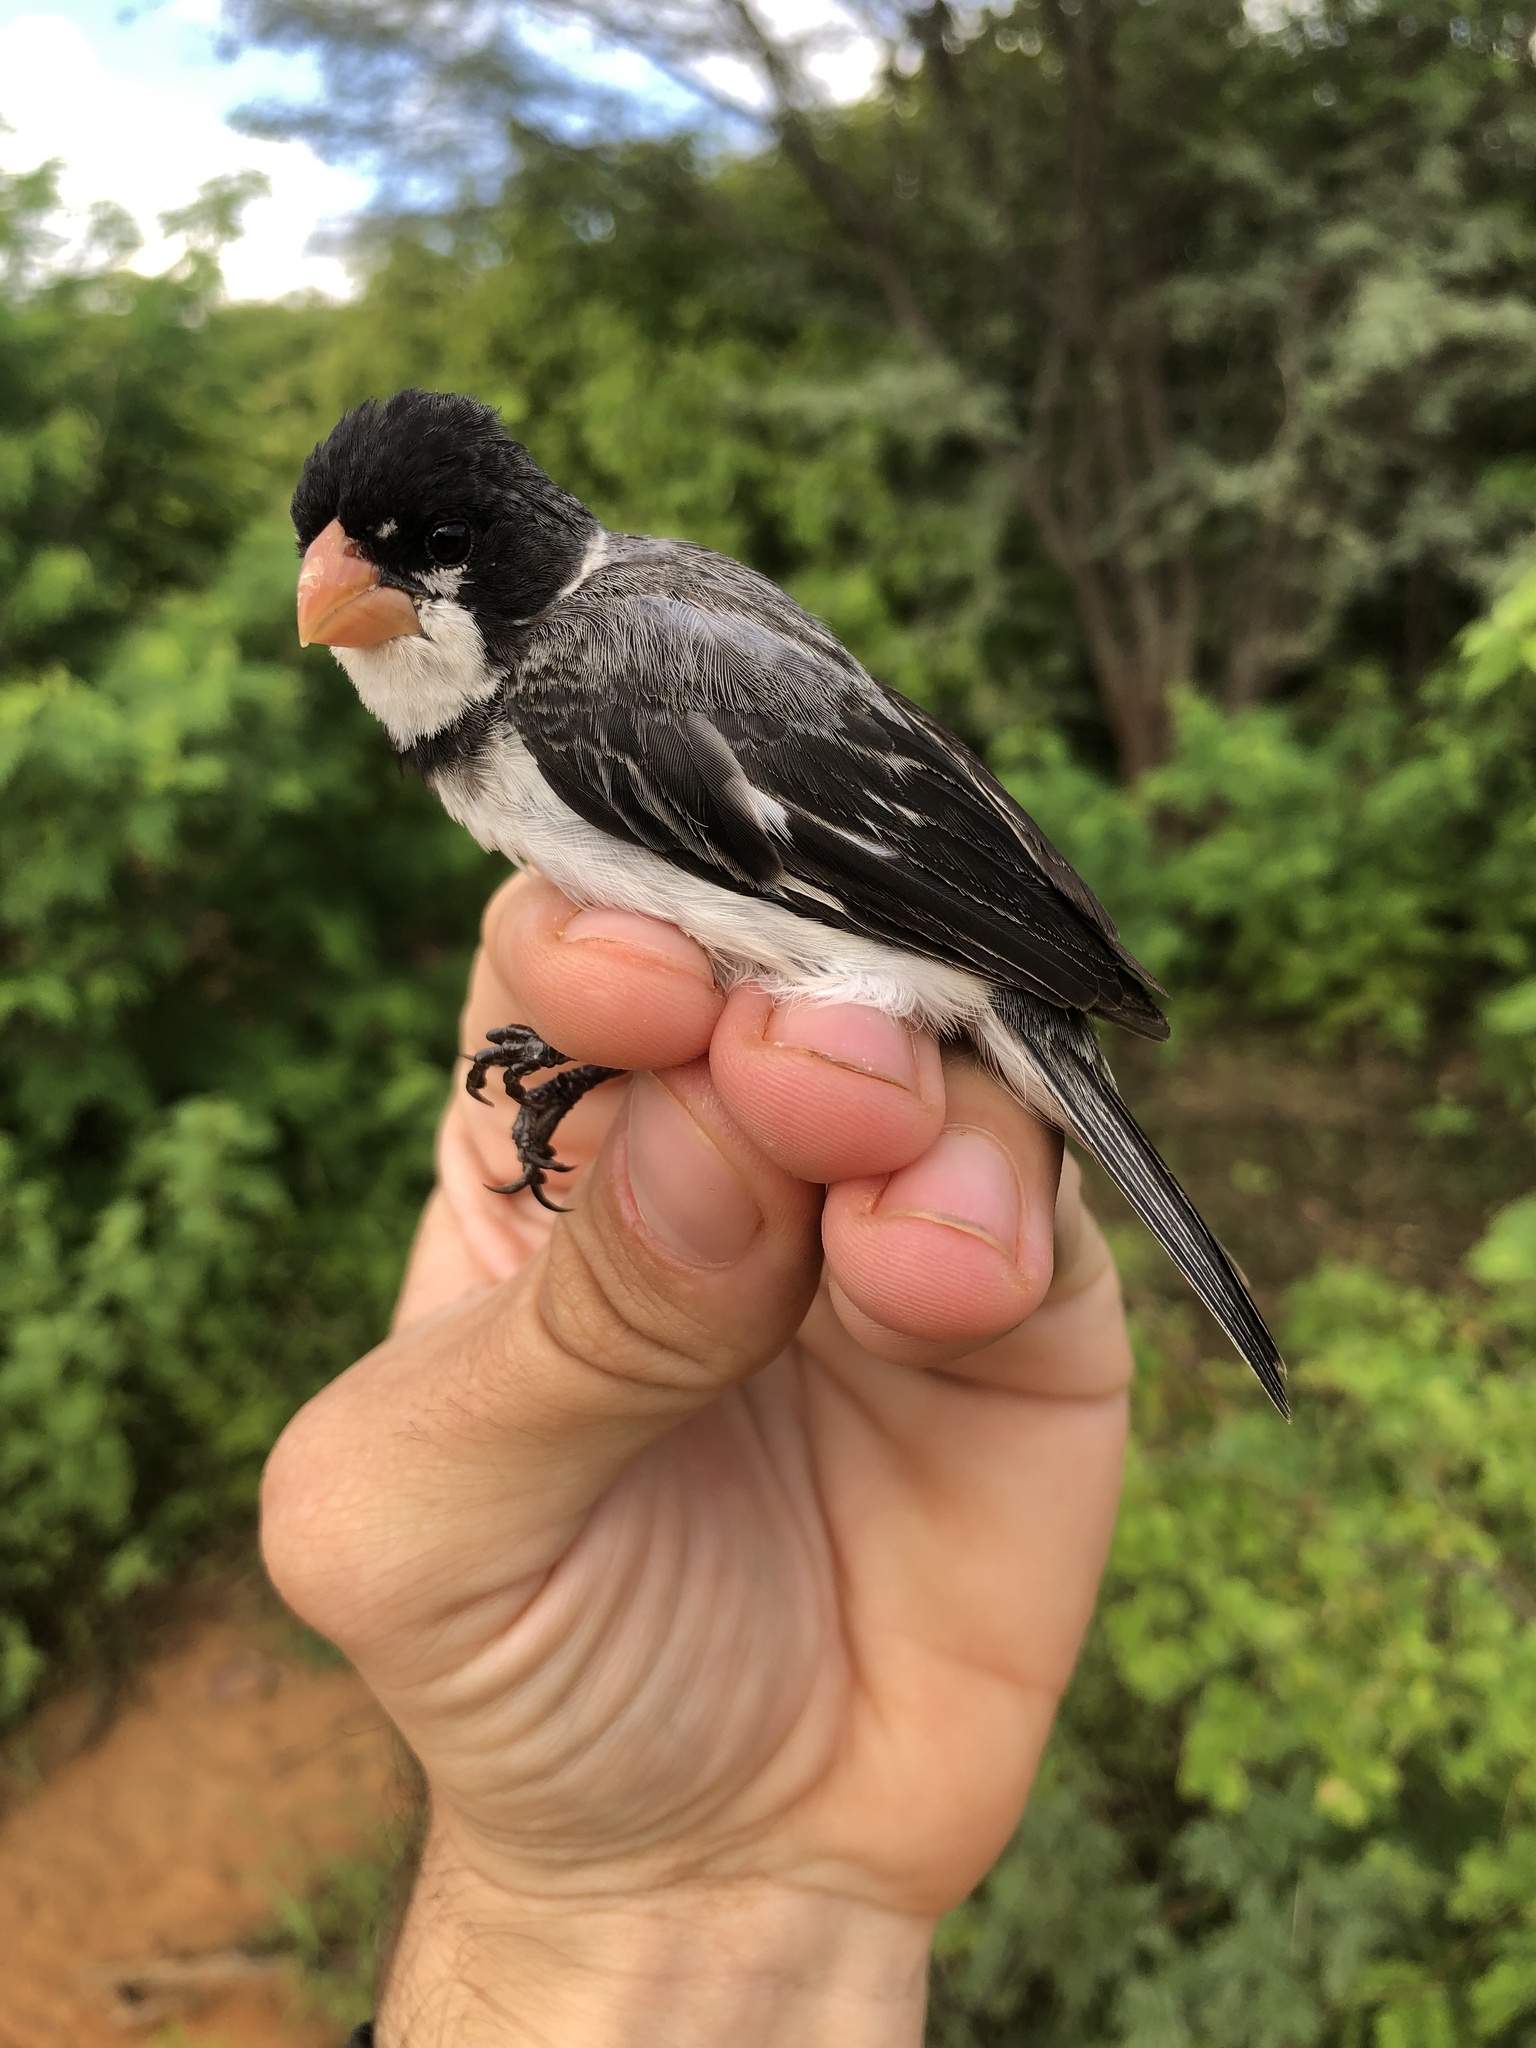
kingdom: Animalia
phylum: Chordata
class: Aves
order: Passeriformes
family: Thraupidae
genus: Sporophila
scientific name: Sporophila albogularis
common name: White-throated seedeater
